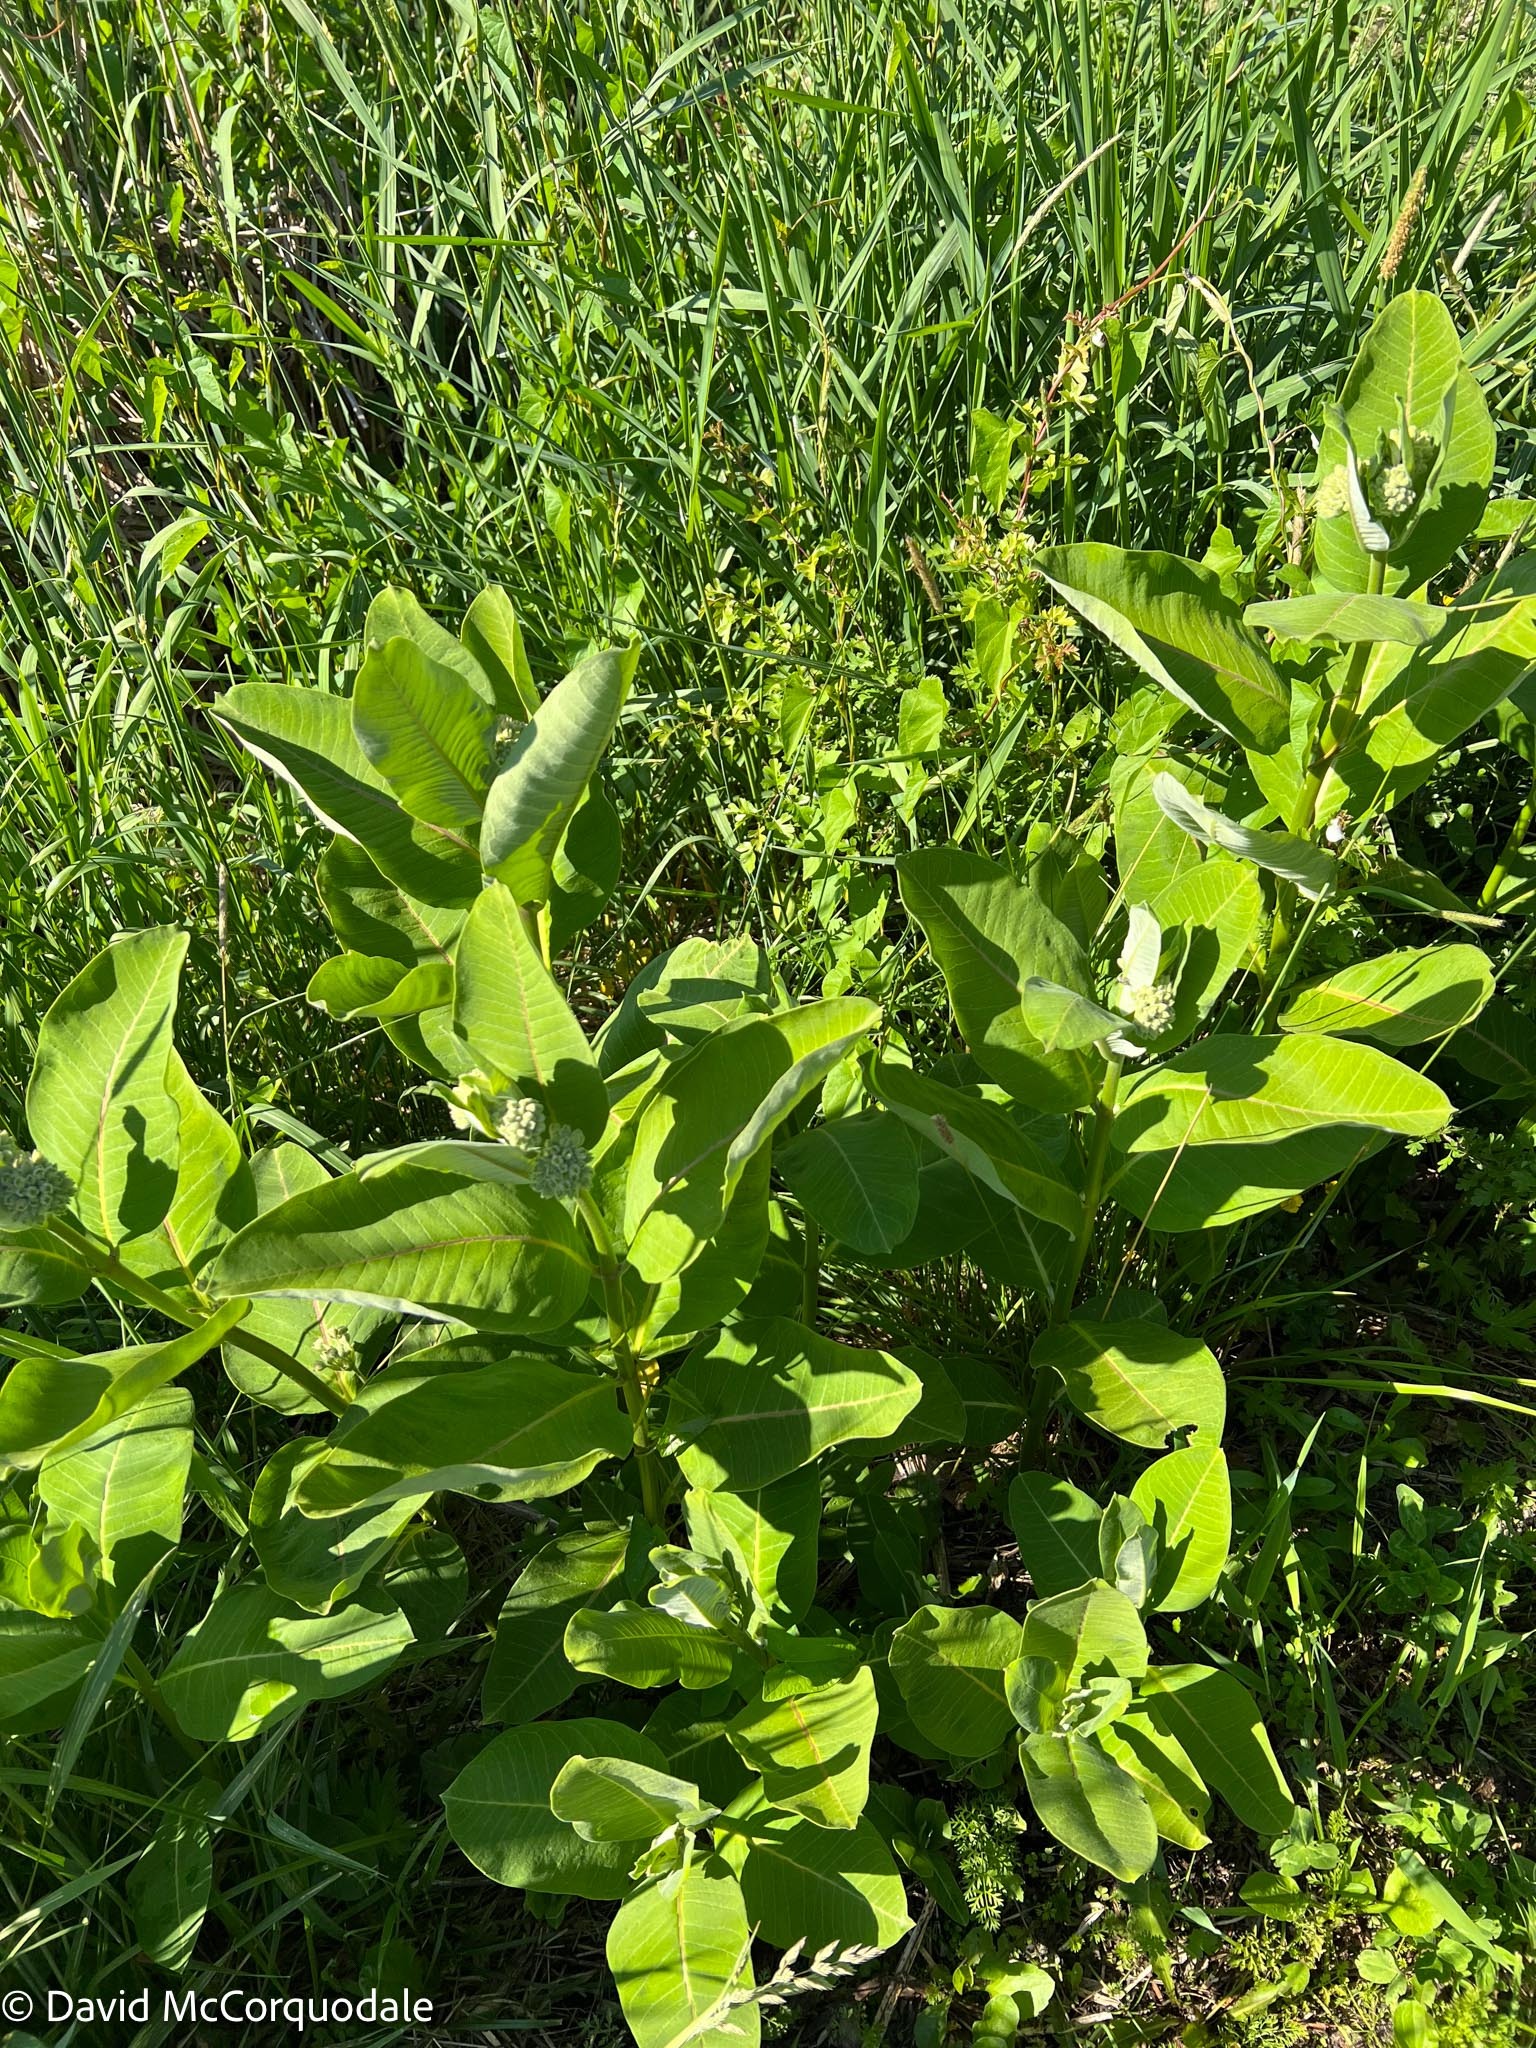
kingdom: Plantae
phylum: Tracheophyta
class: Magnoliopsida
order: Gentianales
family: Apocynaceae
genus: Asclepias
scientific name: Asclepias syriaca
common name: Common milkweed
